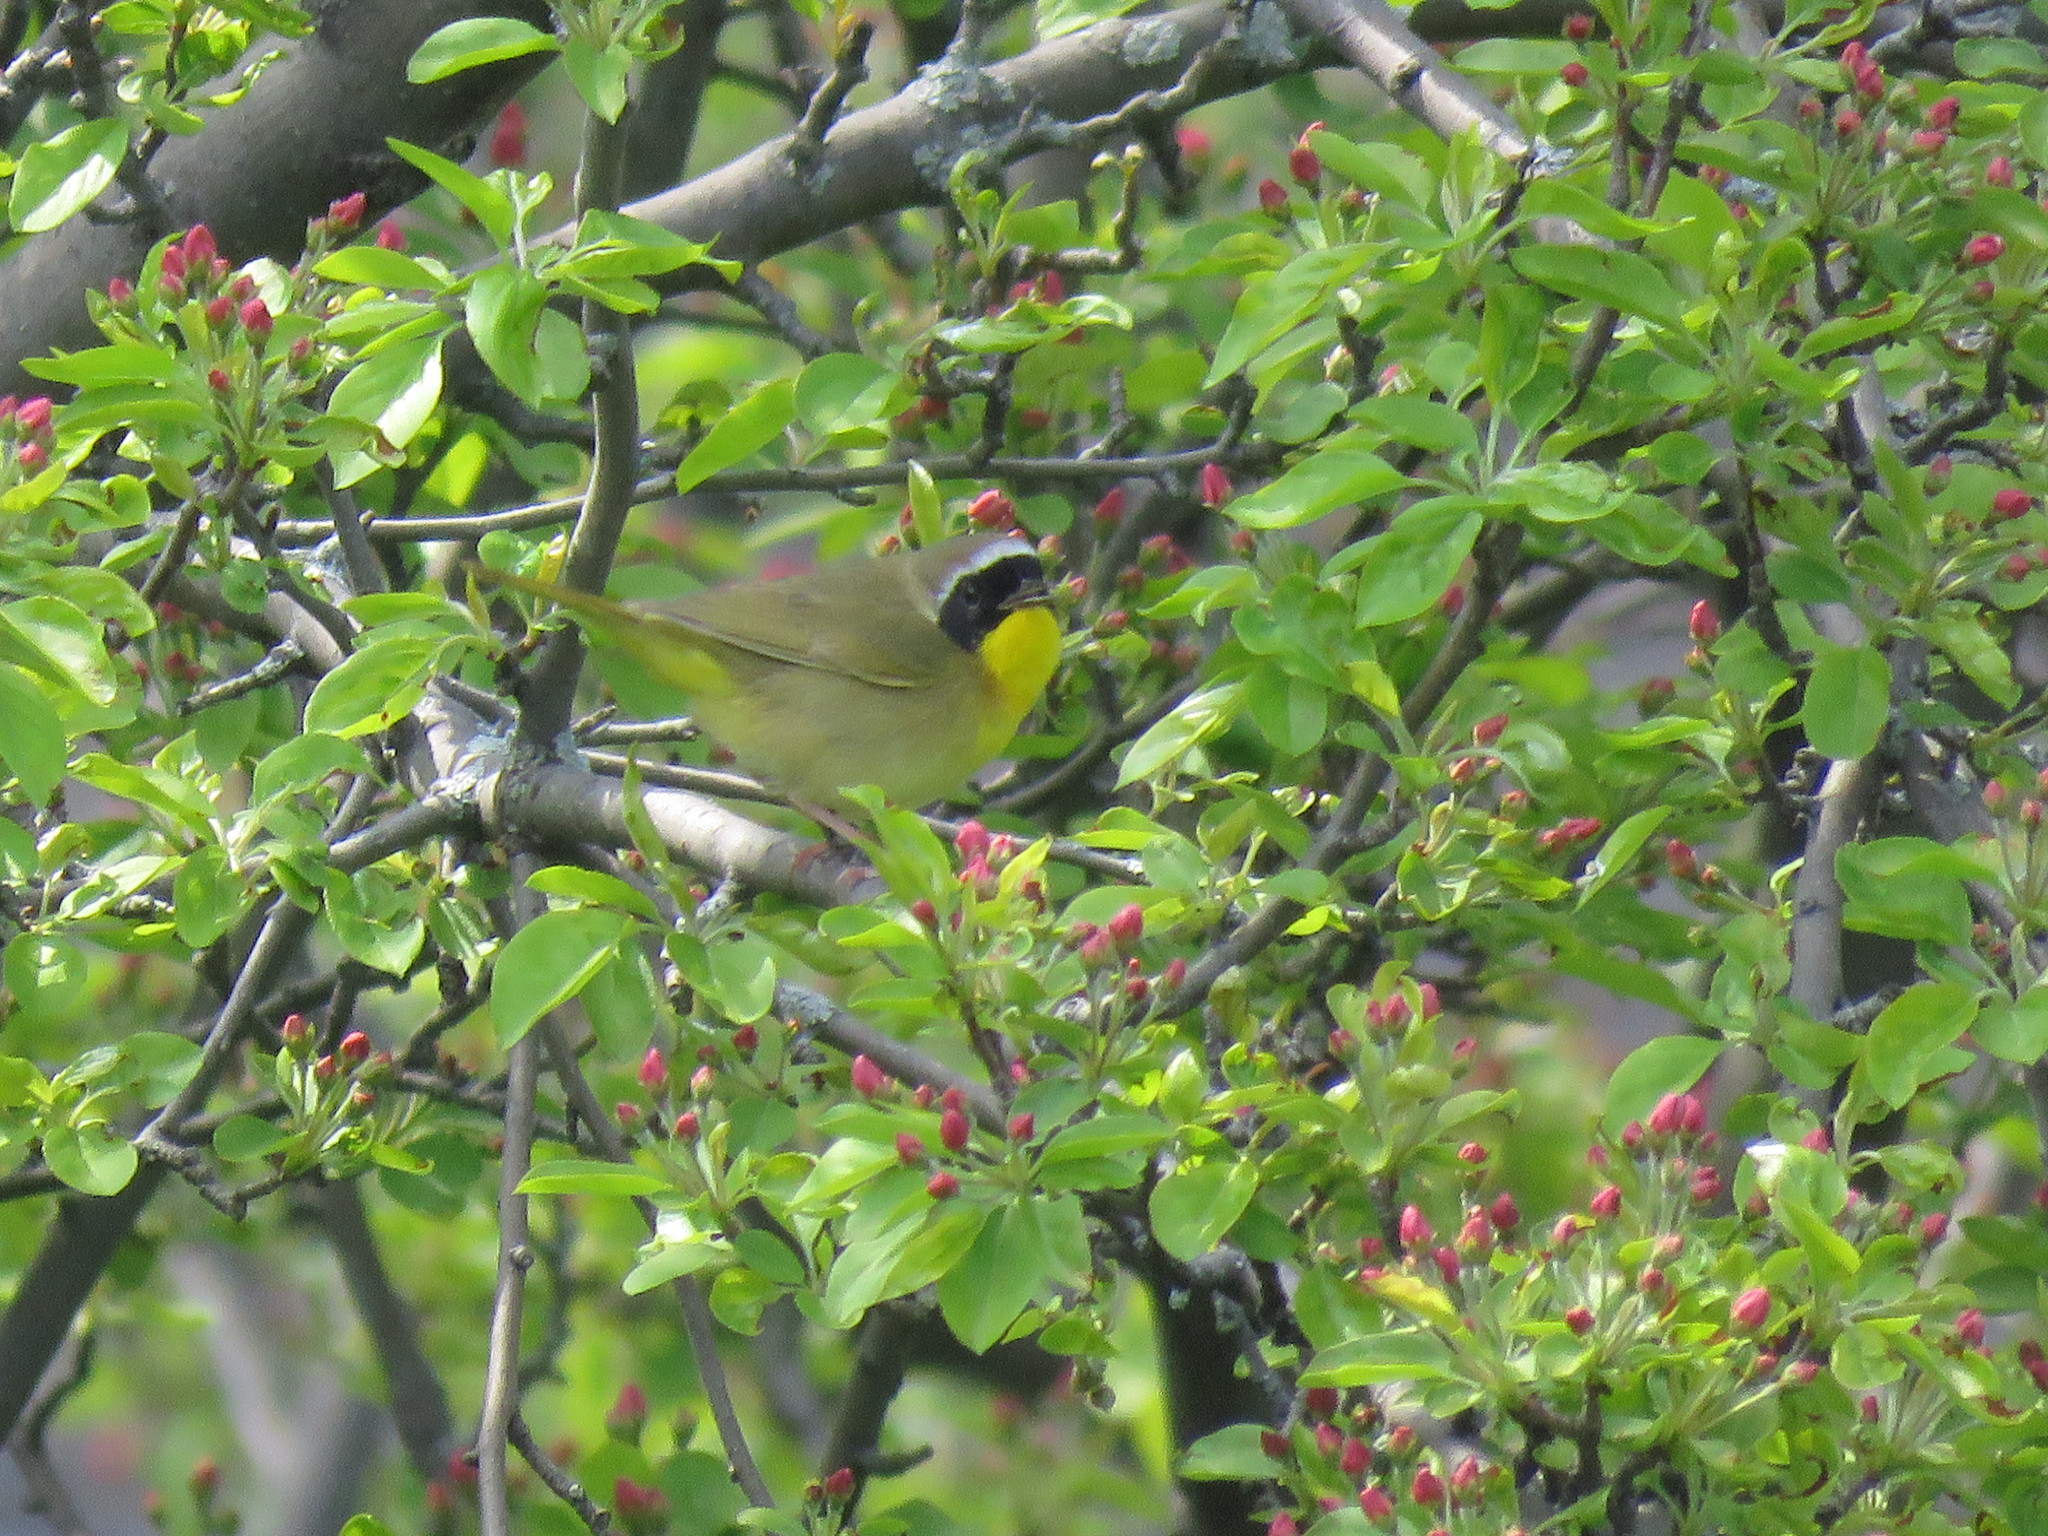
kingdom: Animalia
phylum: Chordata
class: Aves
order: Passeriformes
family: Parulidae
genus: Geothlypis
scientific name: Geothlypis trichas
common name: Common yellowthroat
